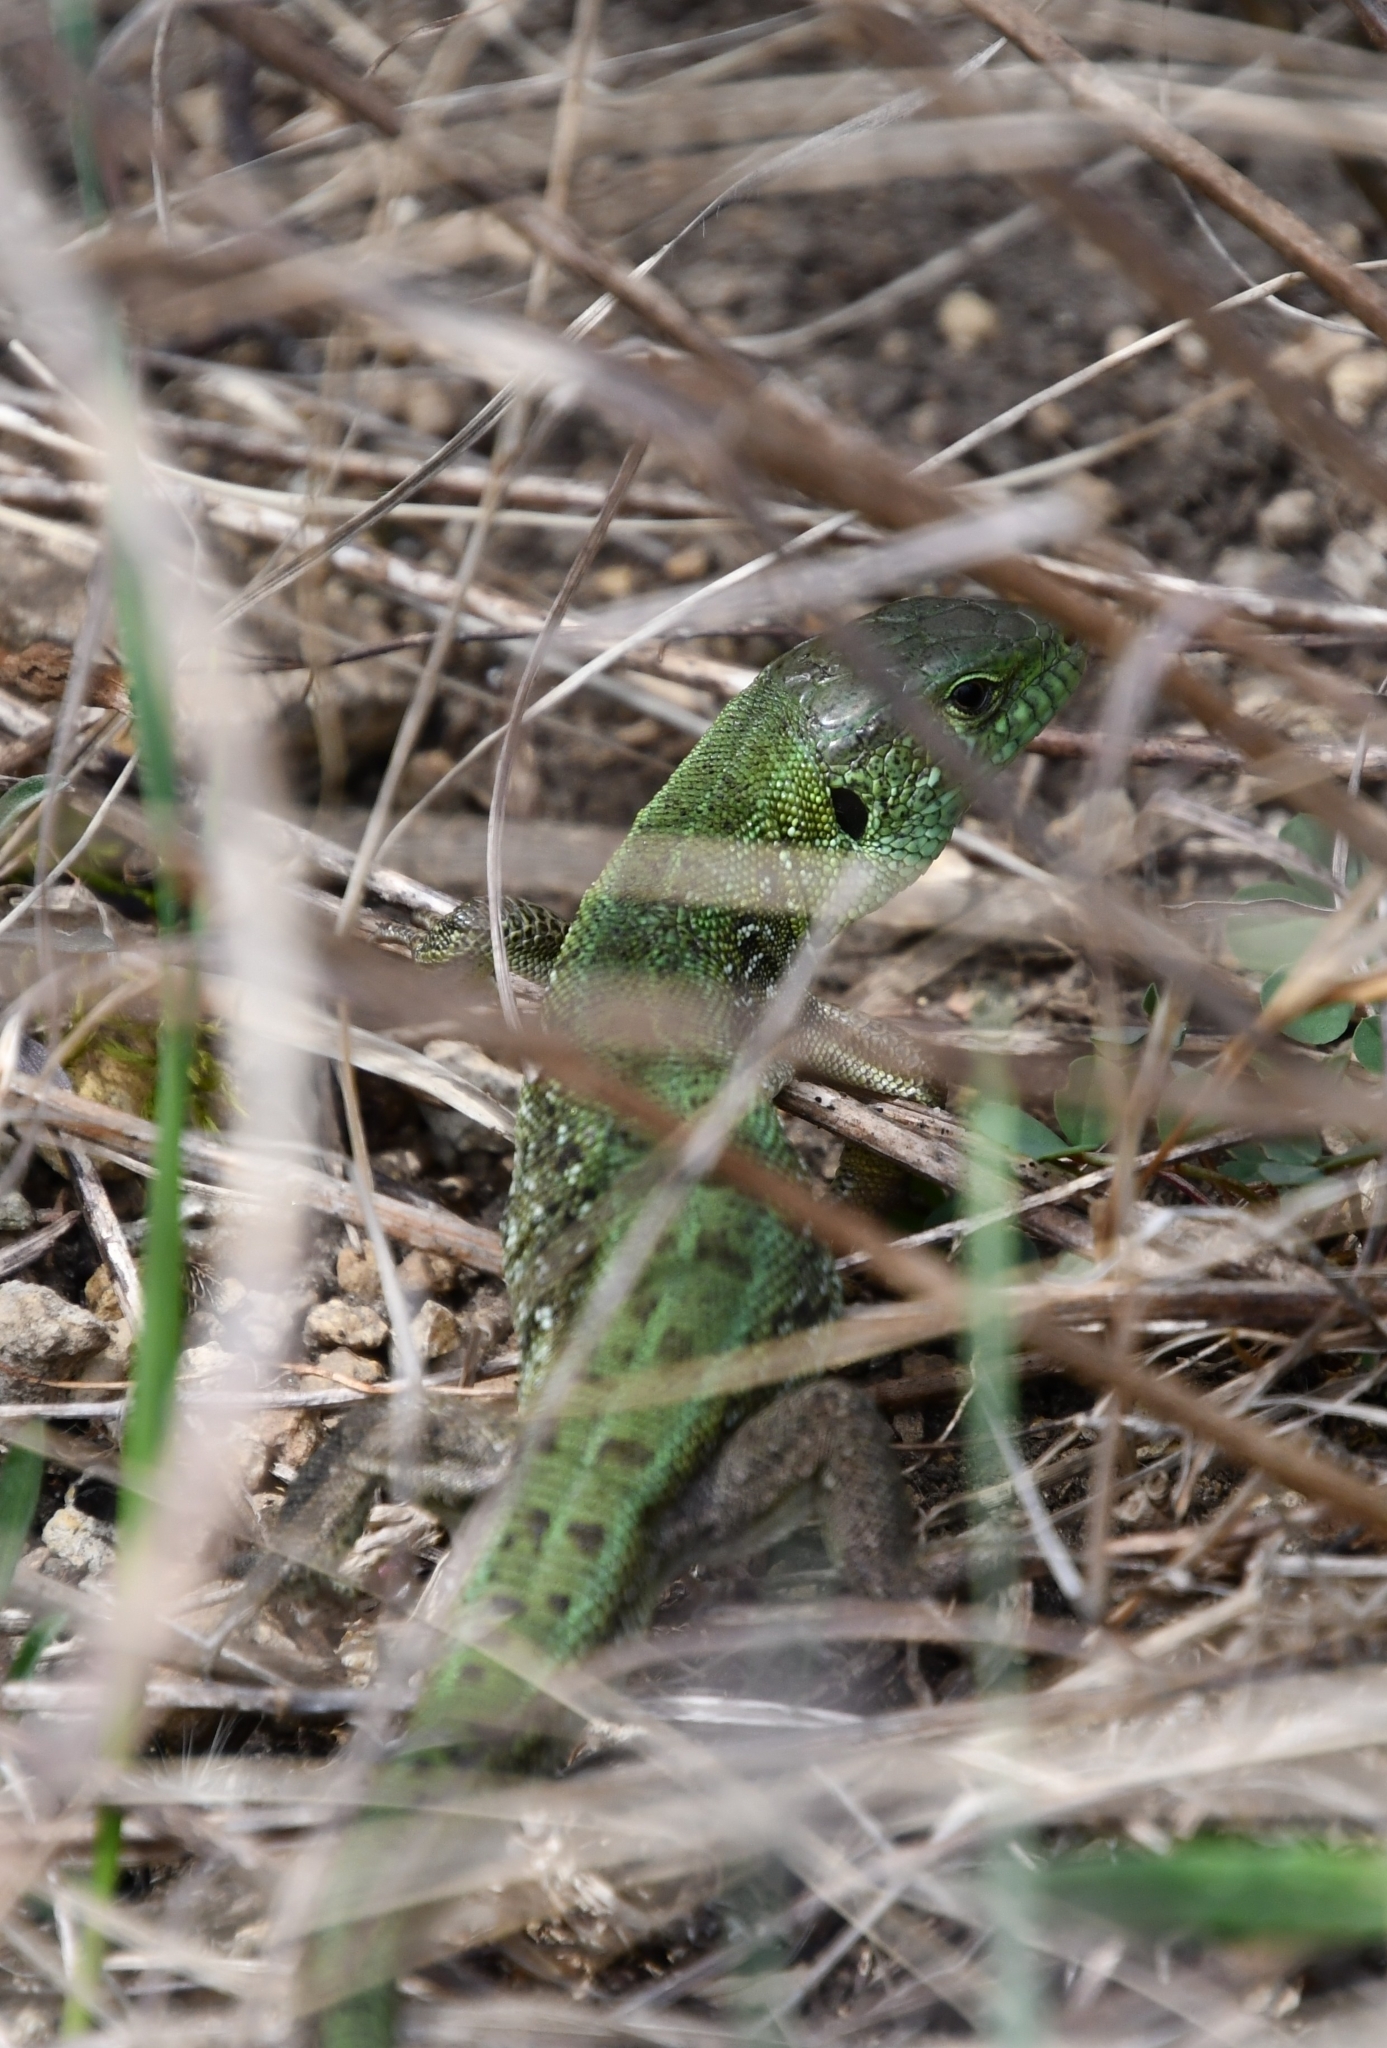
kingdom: Animalia
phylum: Chordata
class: Squamata
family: Lacertidae
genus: Lacerta
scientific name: Lacerta agilis
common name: Sand lizard
